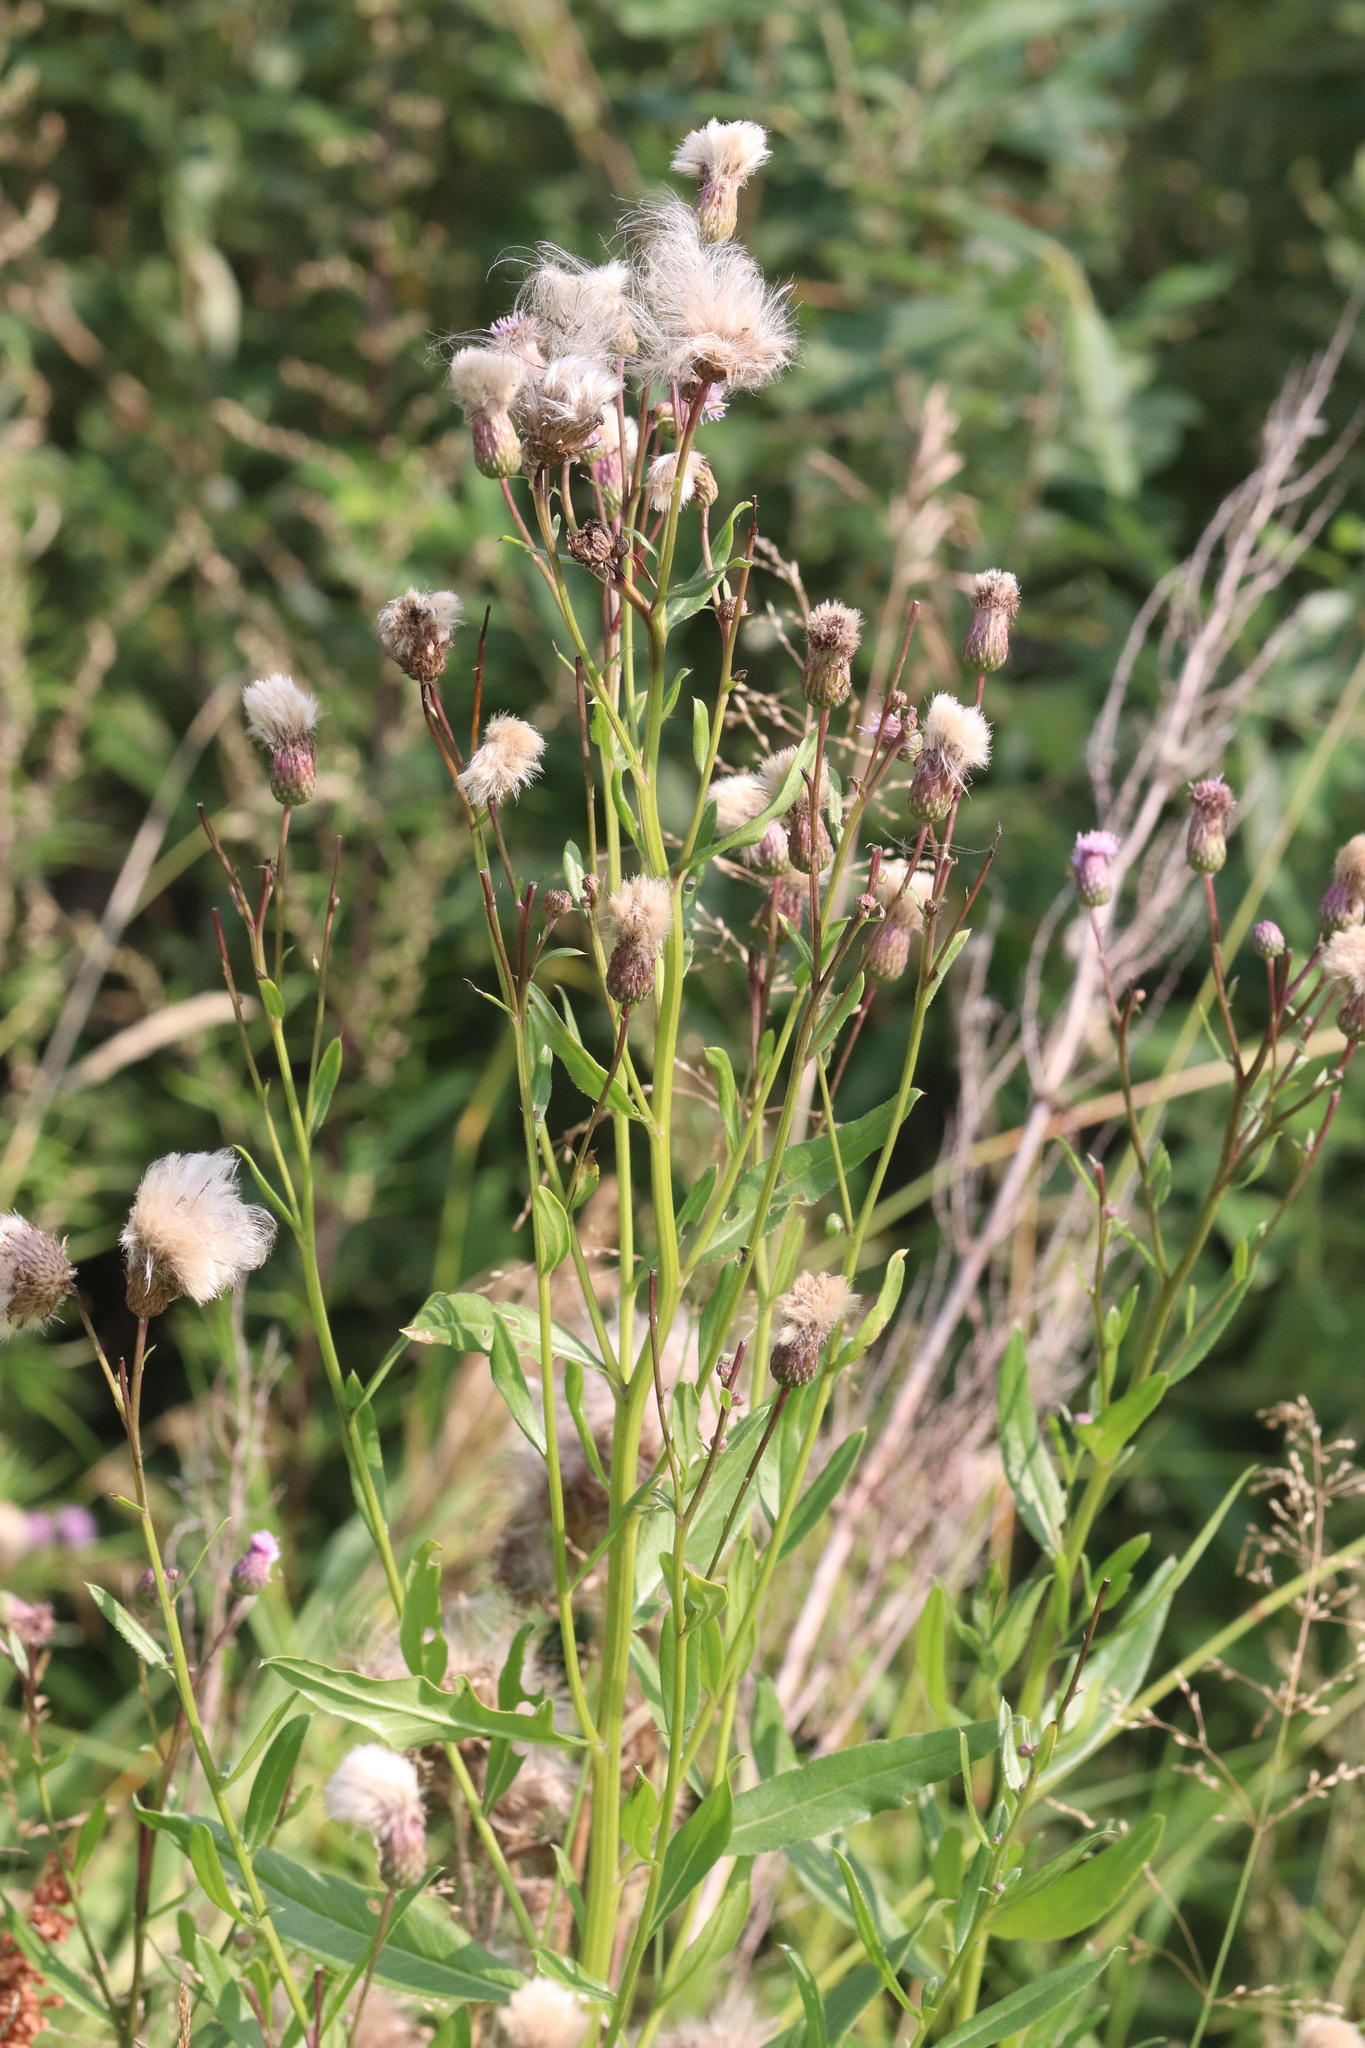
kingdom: Plantae
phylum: Tracheophyta
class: Magnoliopsida
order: Asterales
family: Asteraceae
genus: Cirsium
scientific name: Cirsium arvense
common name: Creeping thistle
